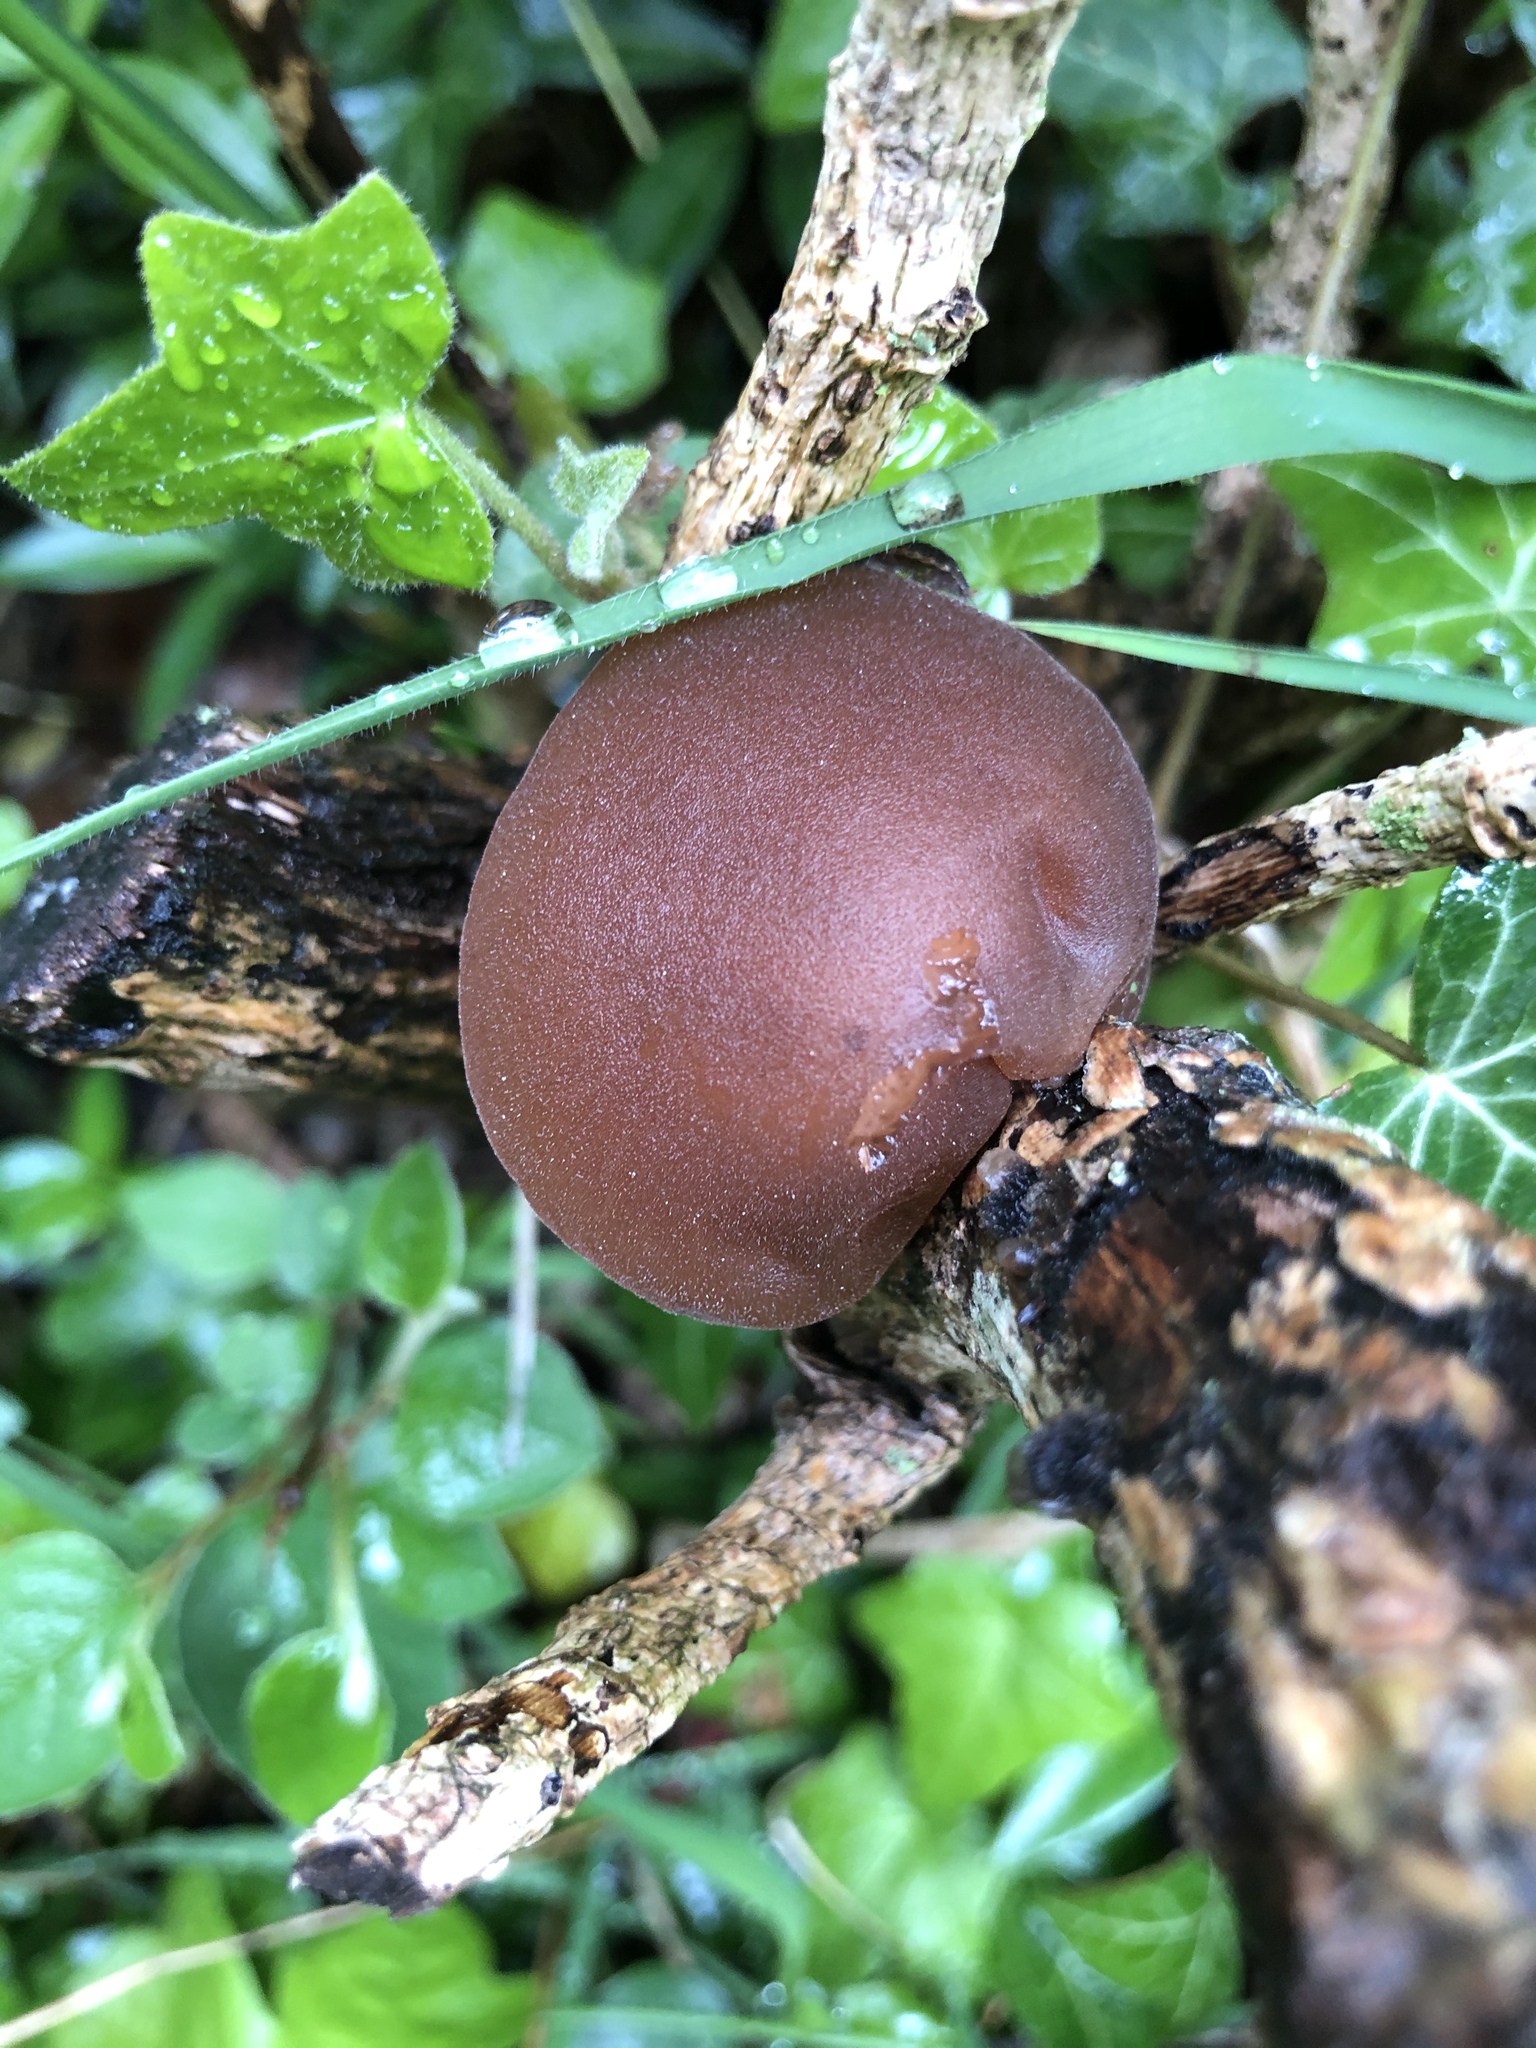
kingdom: Fungi
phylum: Basidiomycota
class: Agaricomycetes
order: Auriculariales
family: Auriculariaceae
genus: Auricularia
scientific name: Auricularia auricula-judae
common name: Jelly ear
